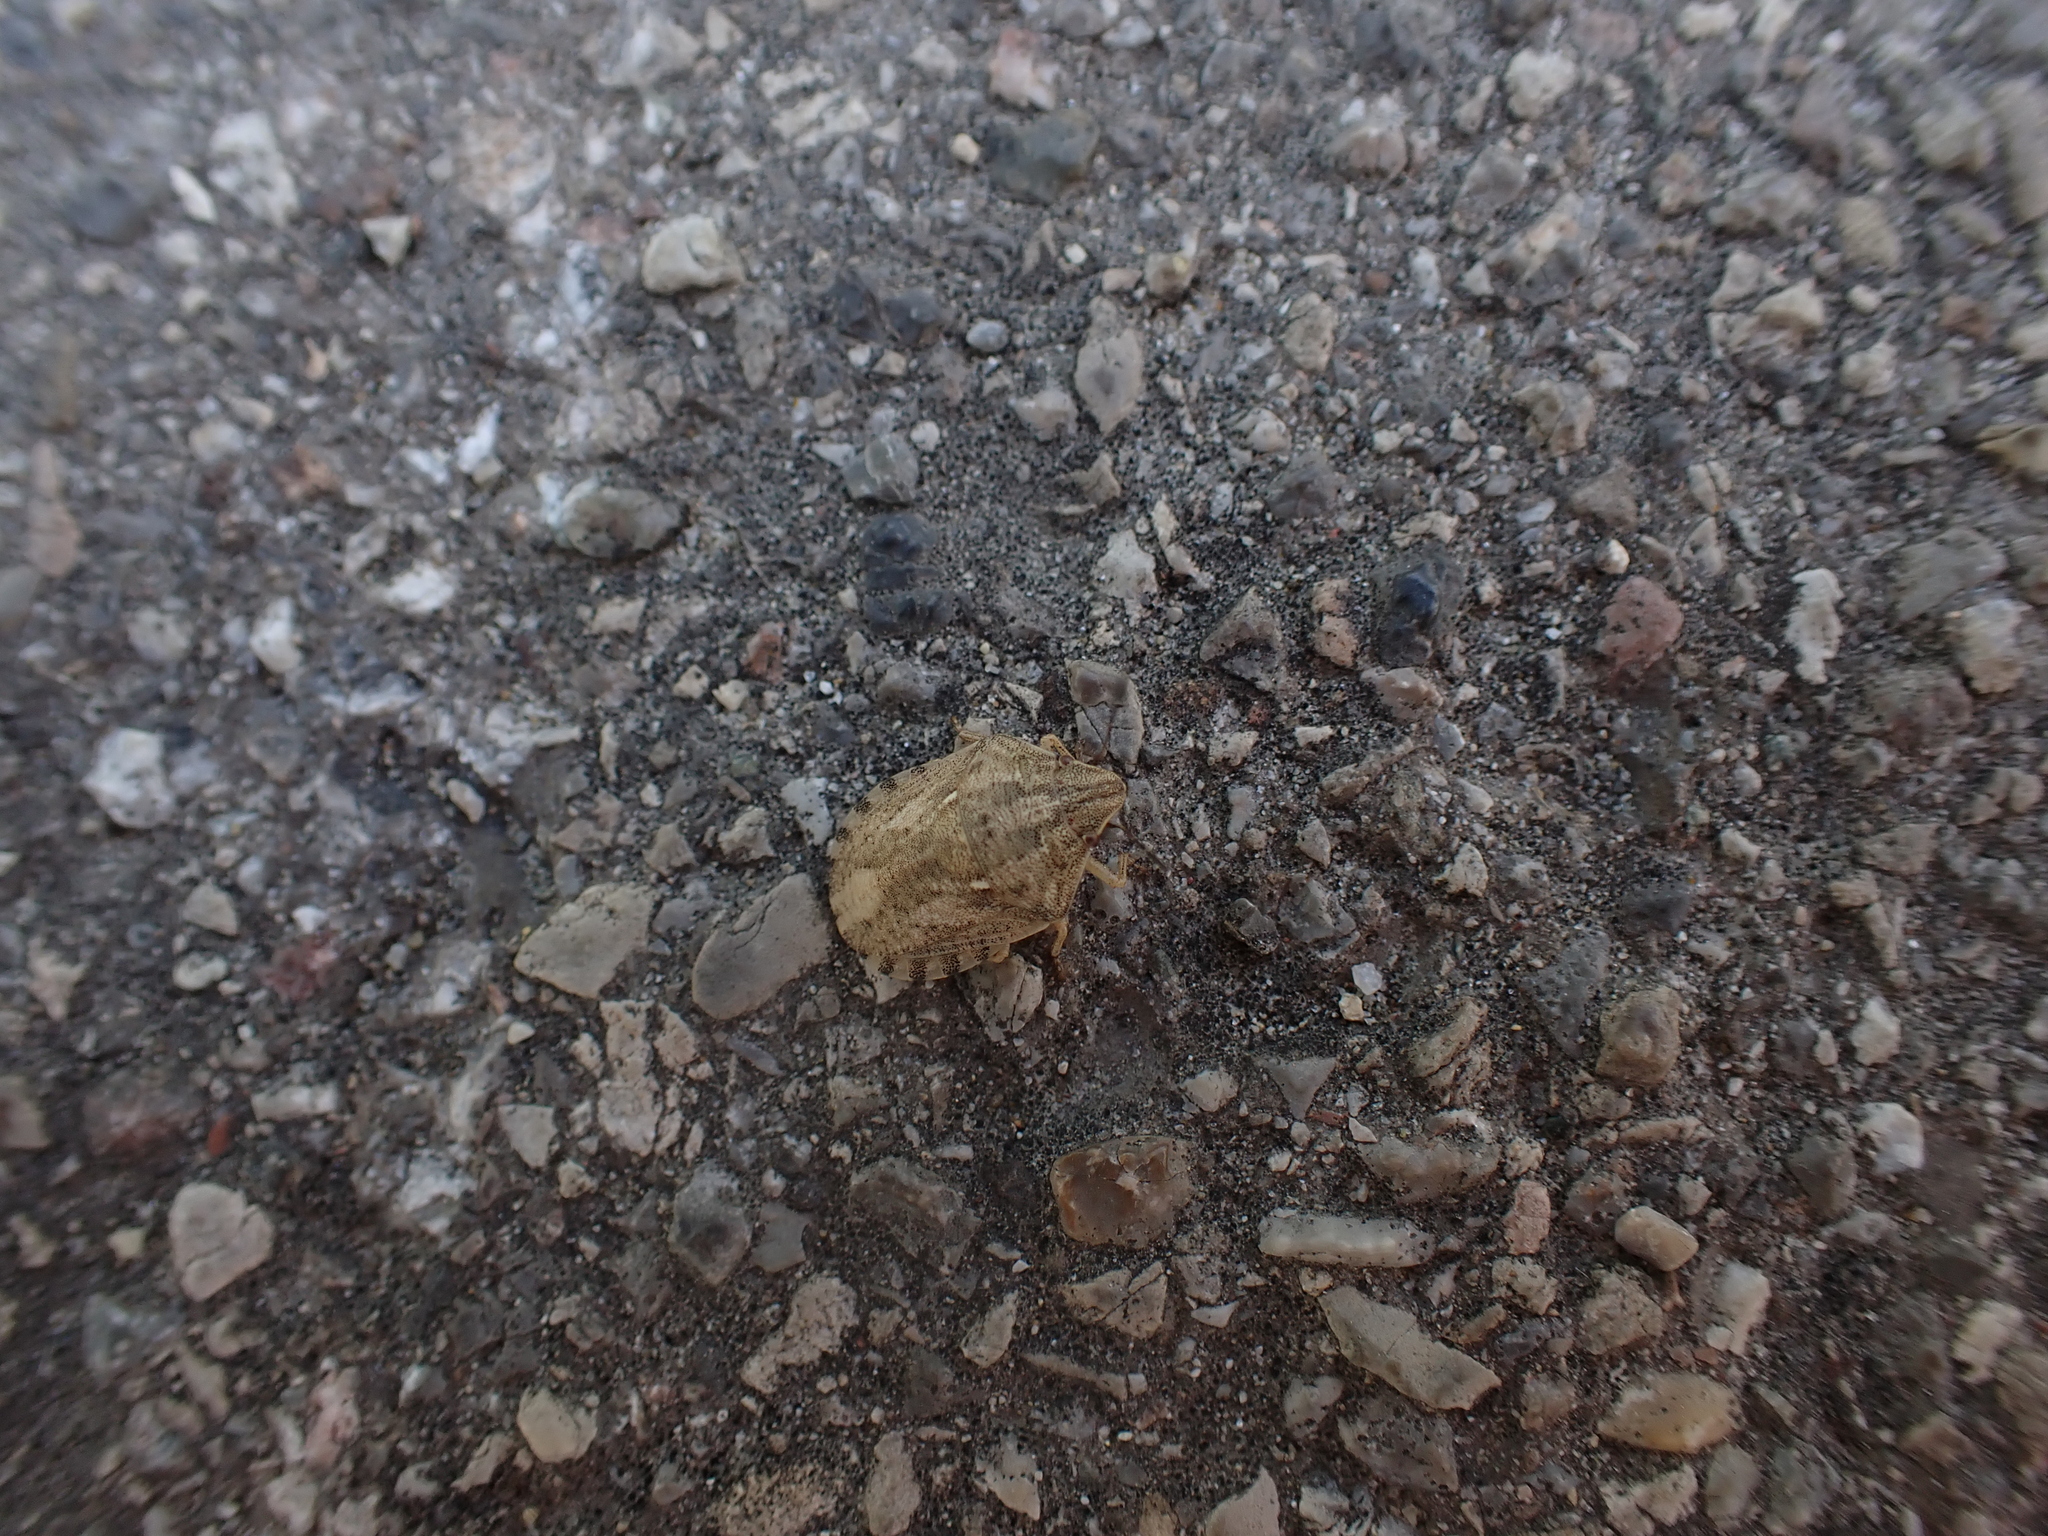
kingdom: Animalia
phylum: Arthropoda
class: Insecta
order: Hemiptera
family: Scutelleridae
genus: Eurygaster
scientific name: Eurygaster maura
